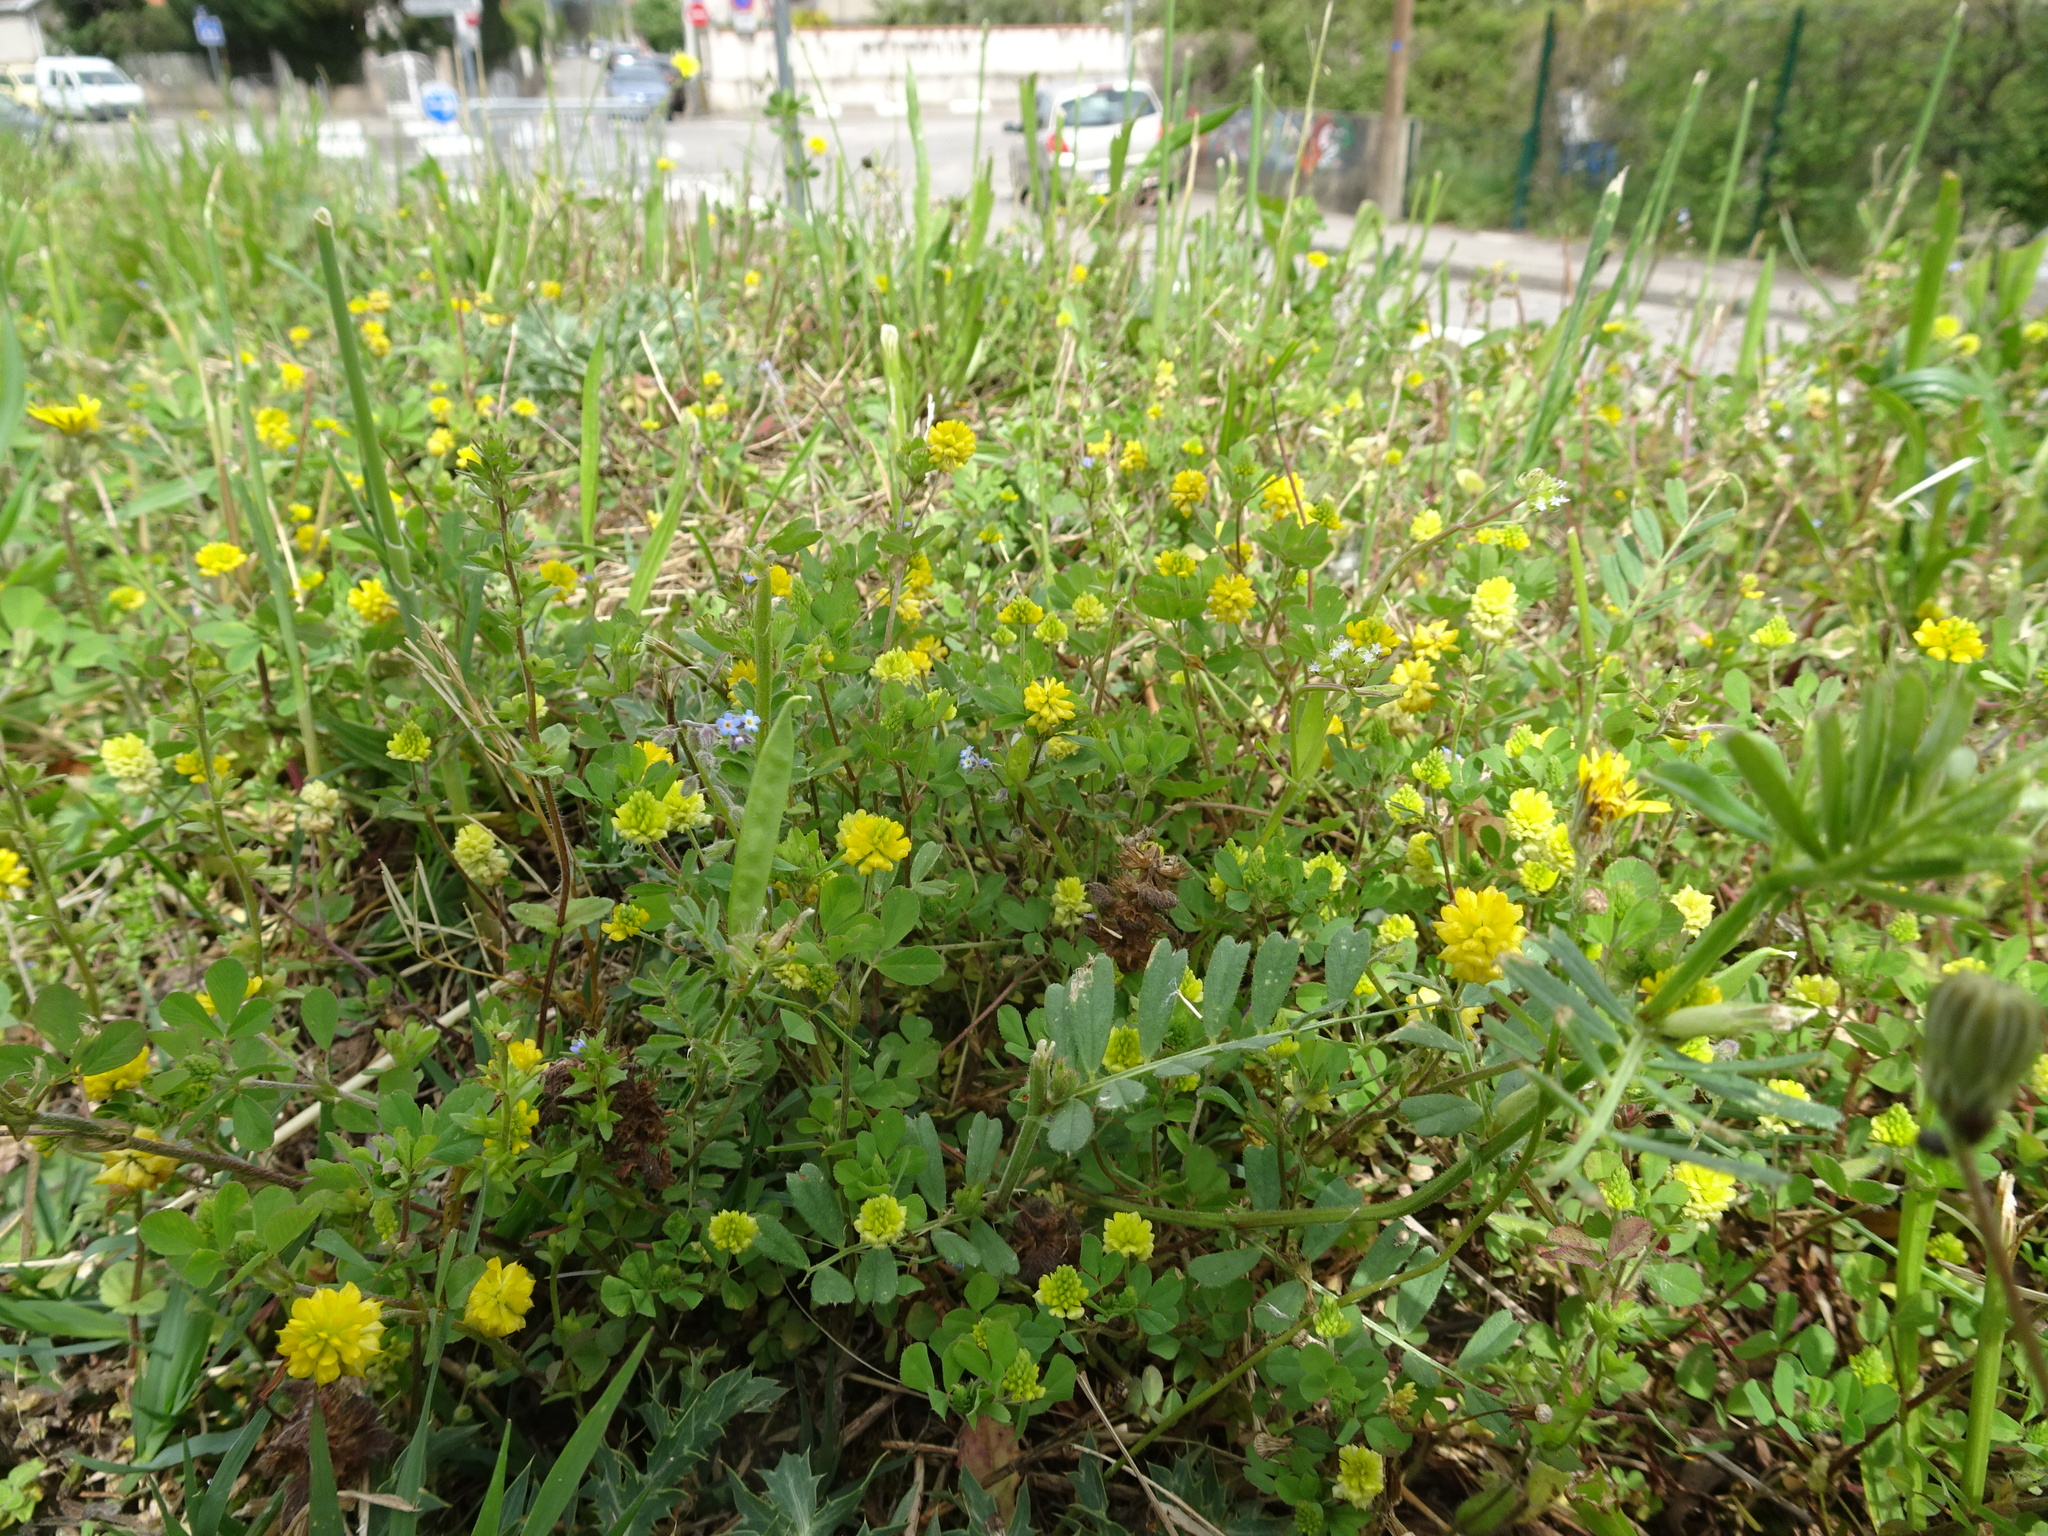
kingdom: Plantae
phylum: Tracheophyta
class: Magnoliopsida
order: Fabales
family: Fabaceae
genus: Trifolium
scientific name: Trifolium campestre
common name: Field clover
